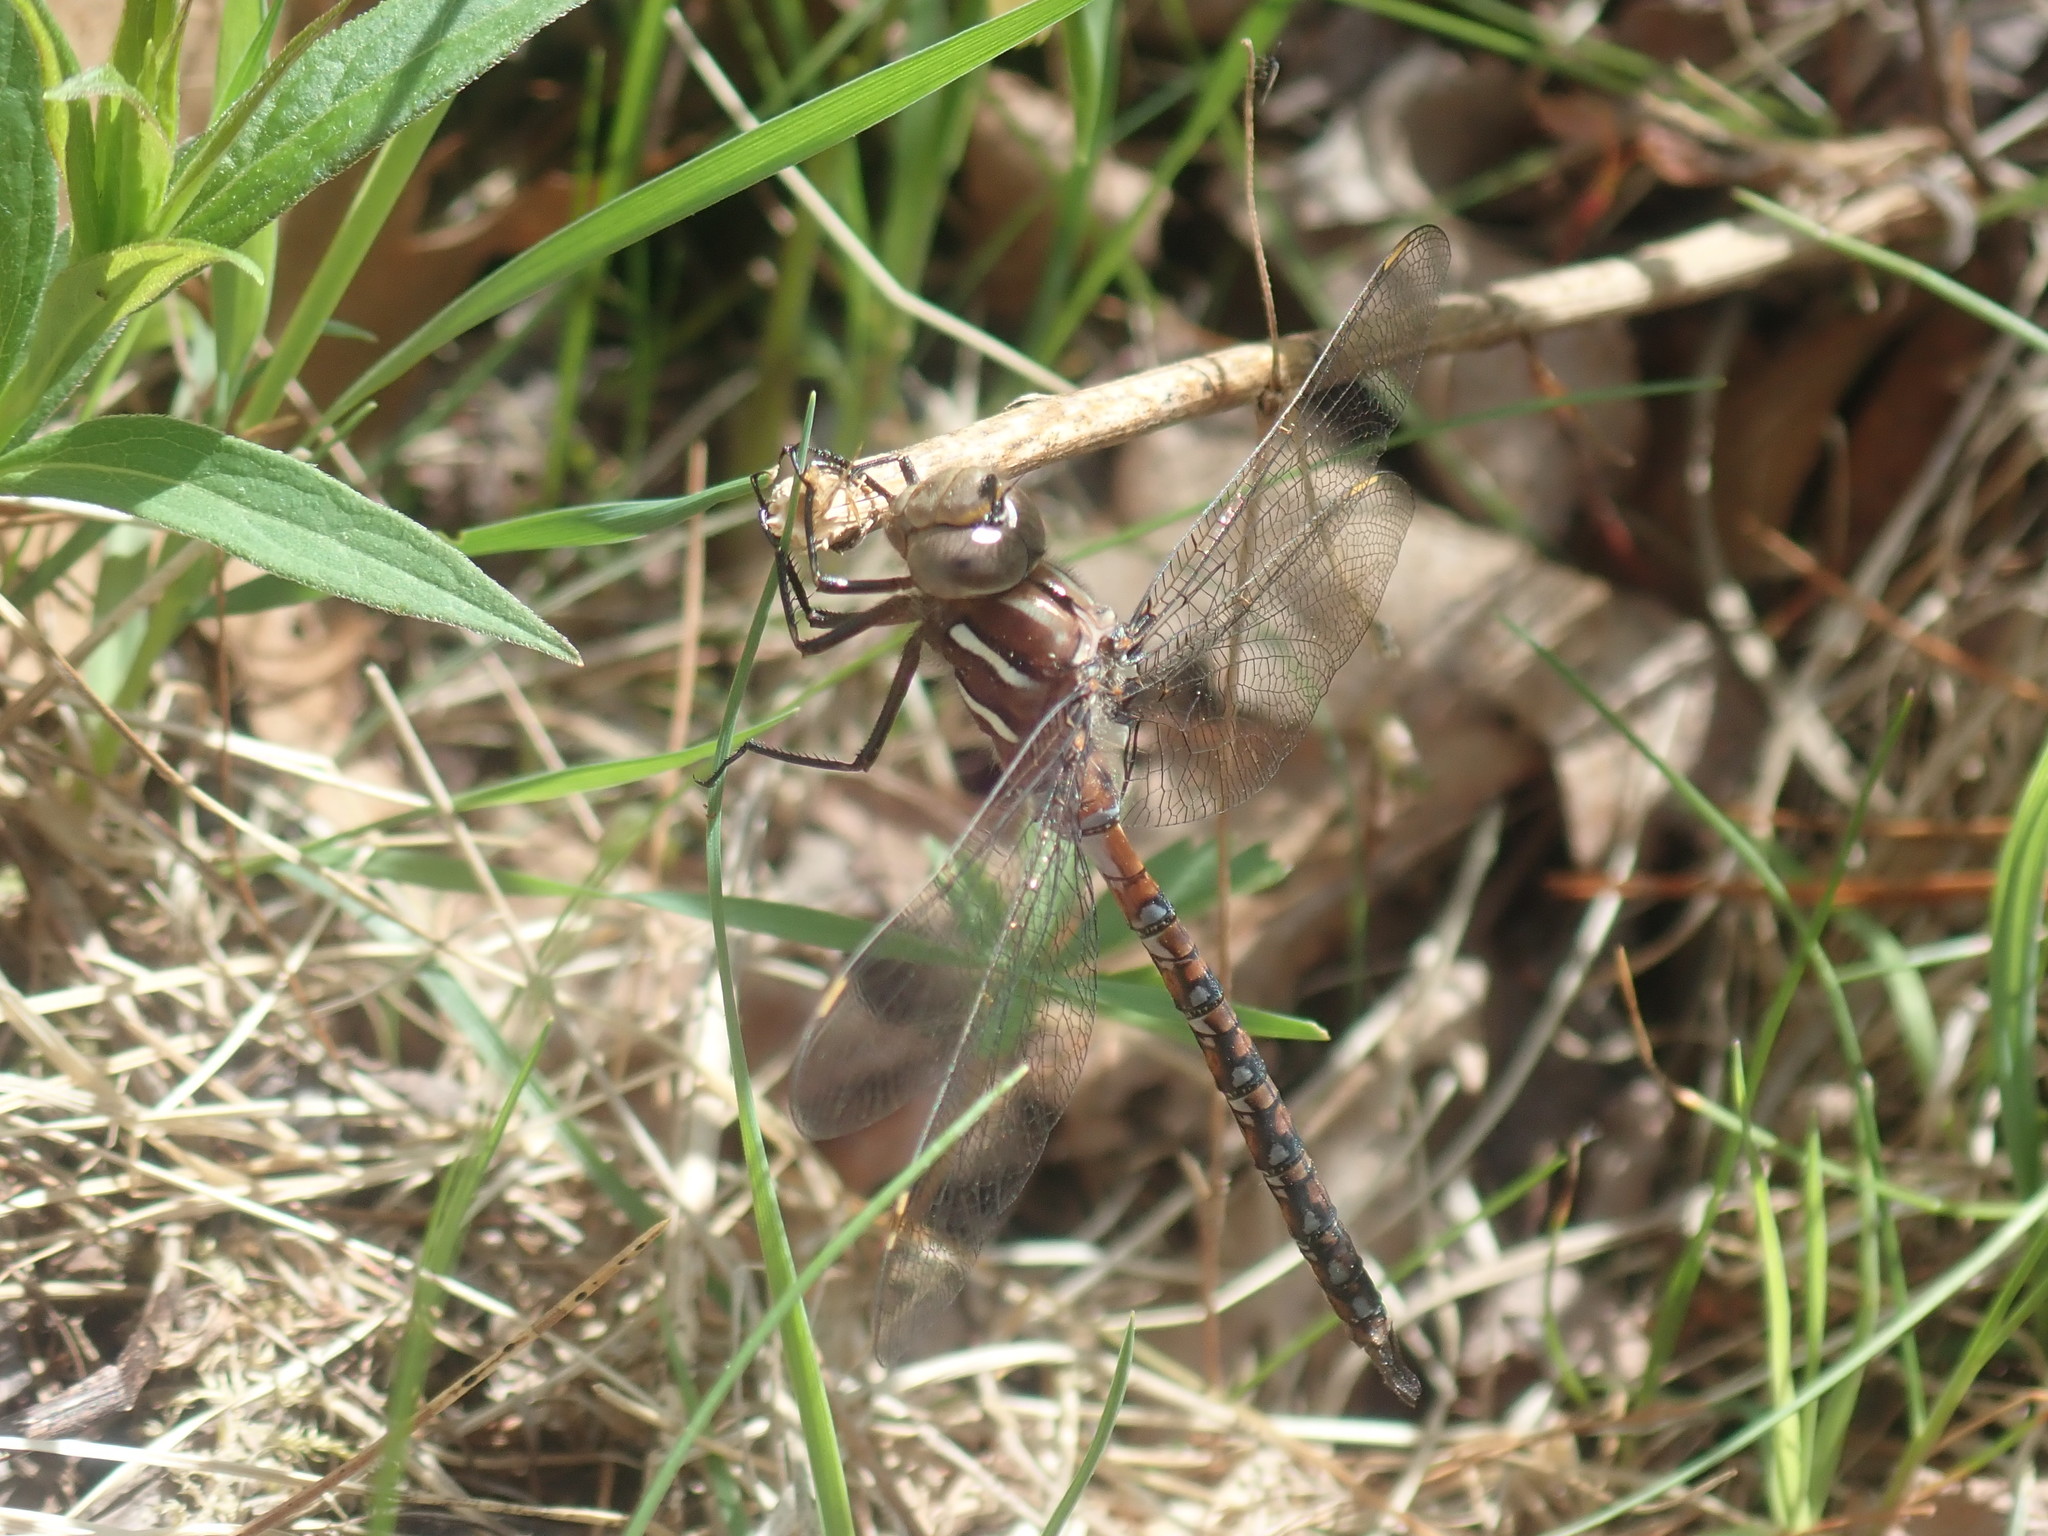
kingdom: Animalia
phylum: Arthropoda
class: Insecta
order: Odonata
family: Aeshnidae
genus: Basiaeschna
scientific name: Basiaeschna janata
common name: Springtime darner
